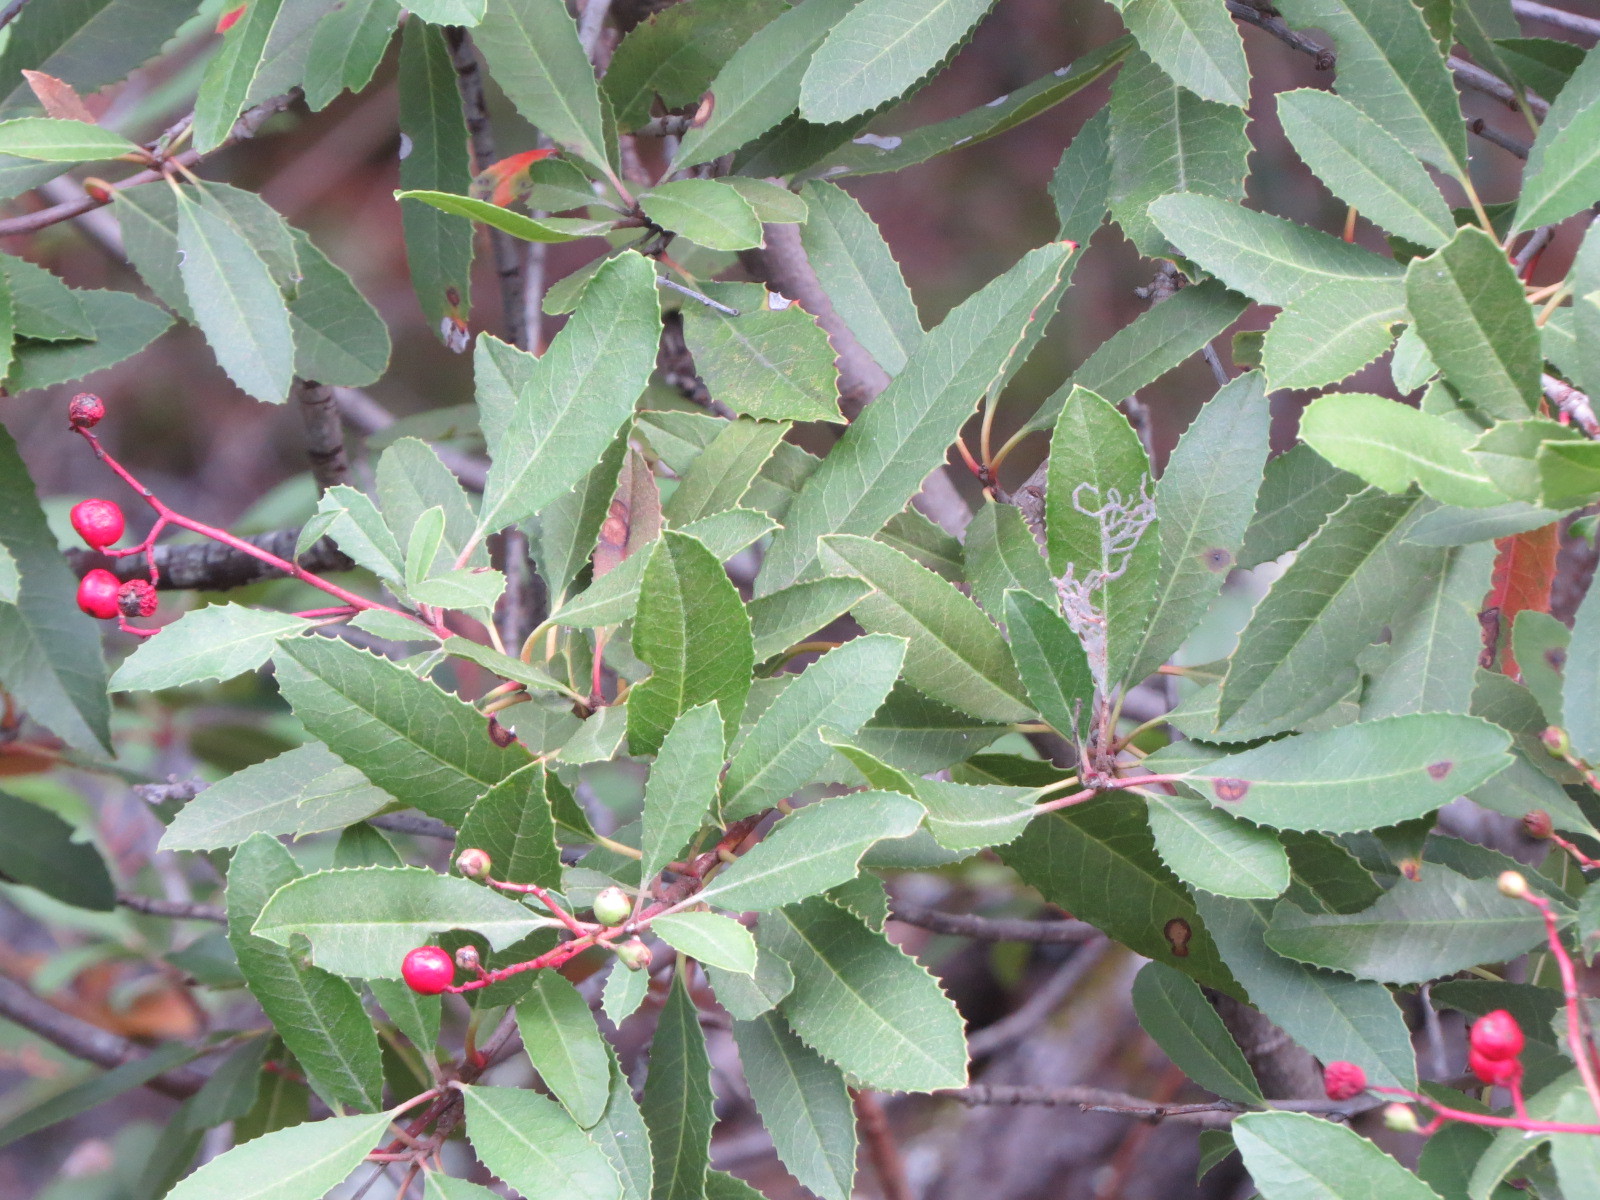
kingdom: Plantae
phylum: Tracheophyta
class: Magnoliopsida
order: Rosales
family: Rosaceae
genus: Heteromeles
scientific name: Heteromeles arbutifolia
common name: California-holly
